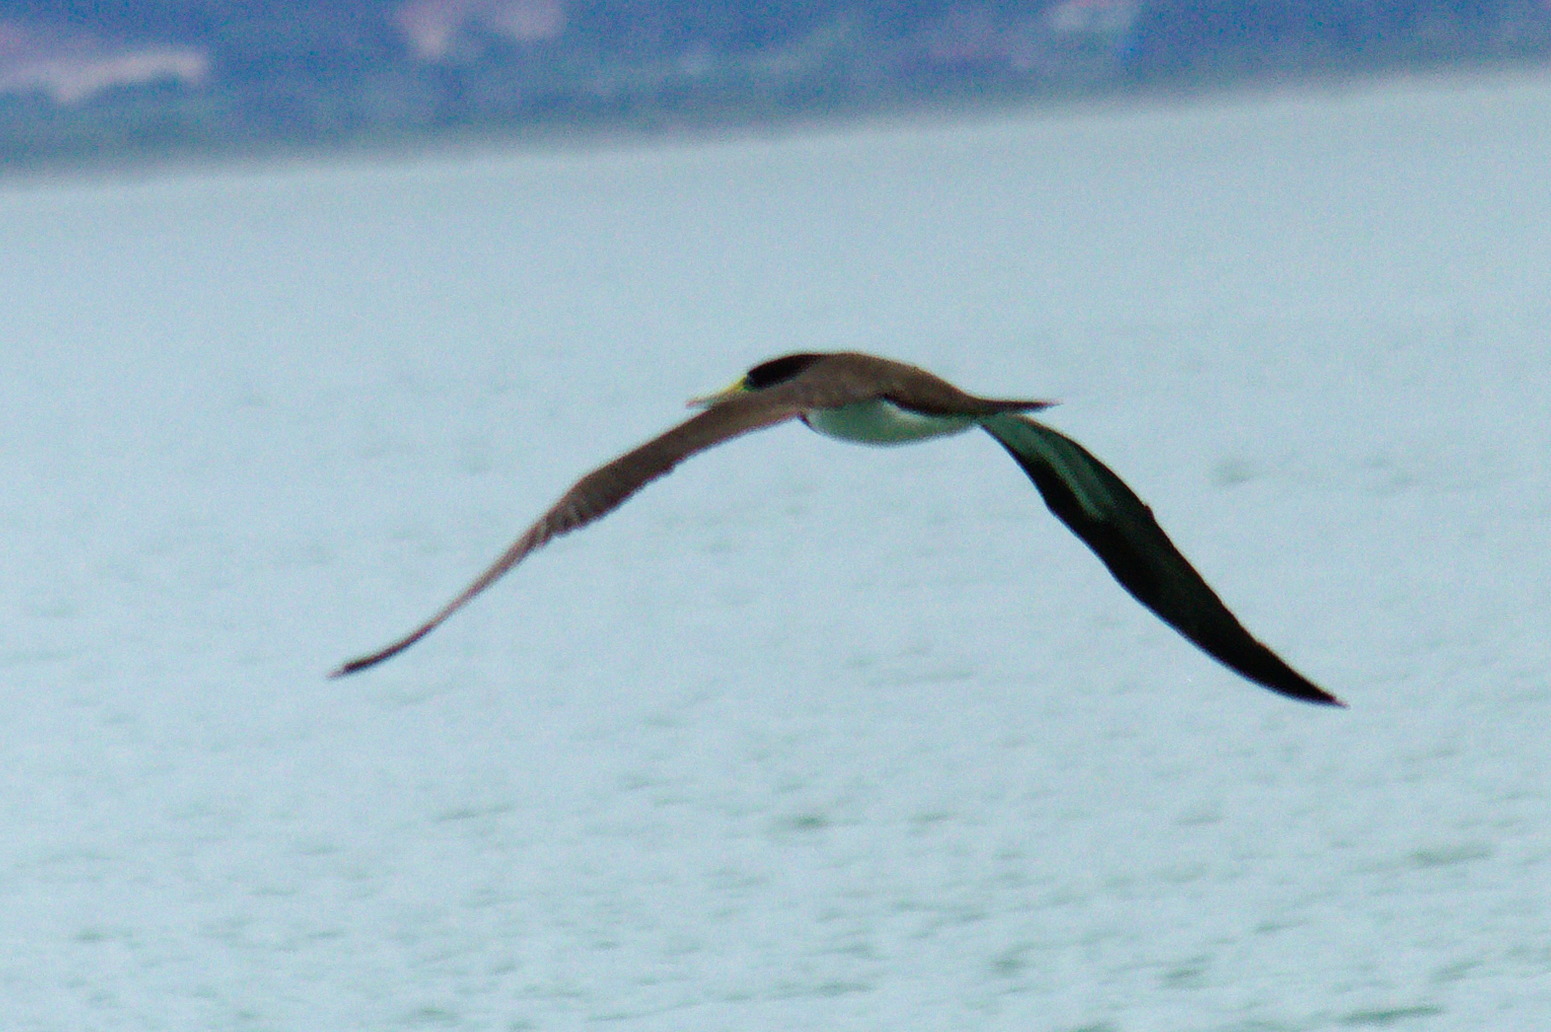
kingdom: Animalia
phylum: Chordata
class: Aves
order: Suliformes
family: Sulidae
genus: Sula
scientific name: Sula leucogaster
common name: Brown booby
